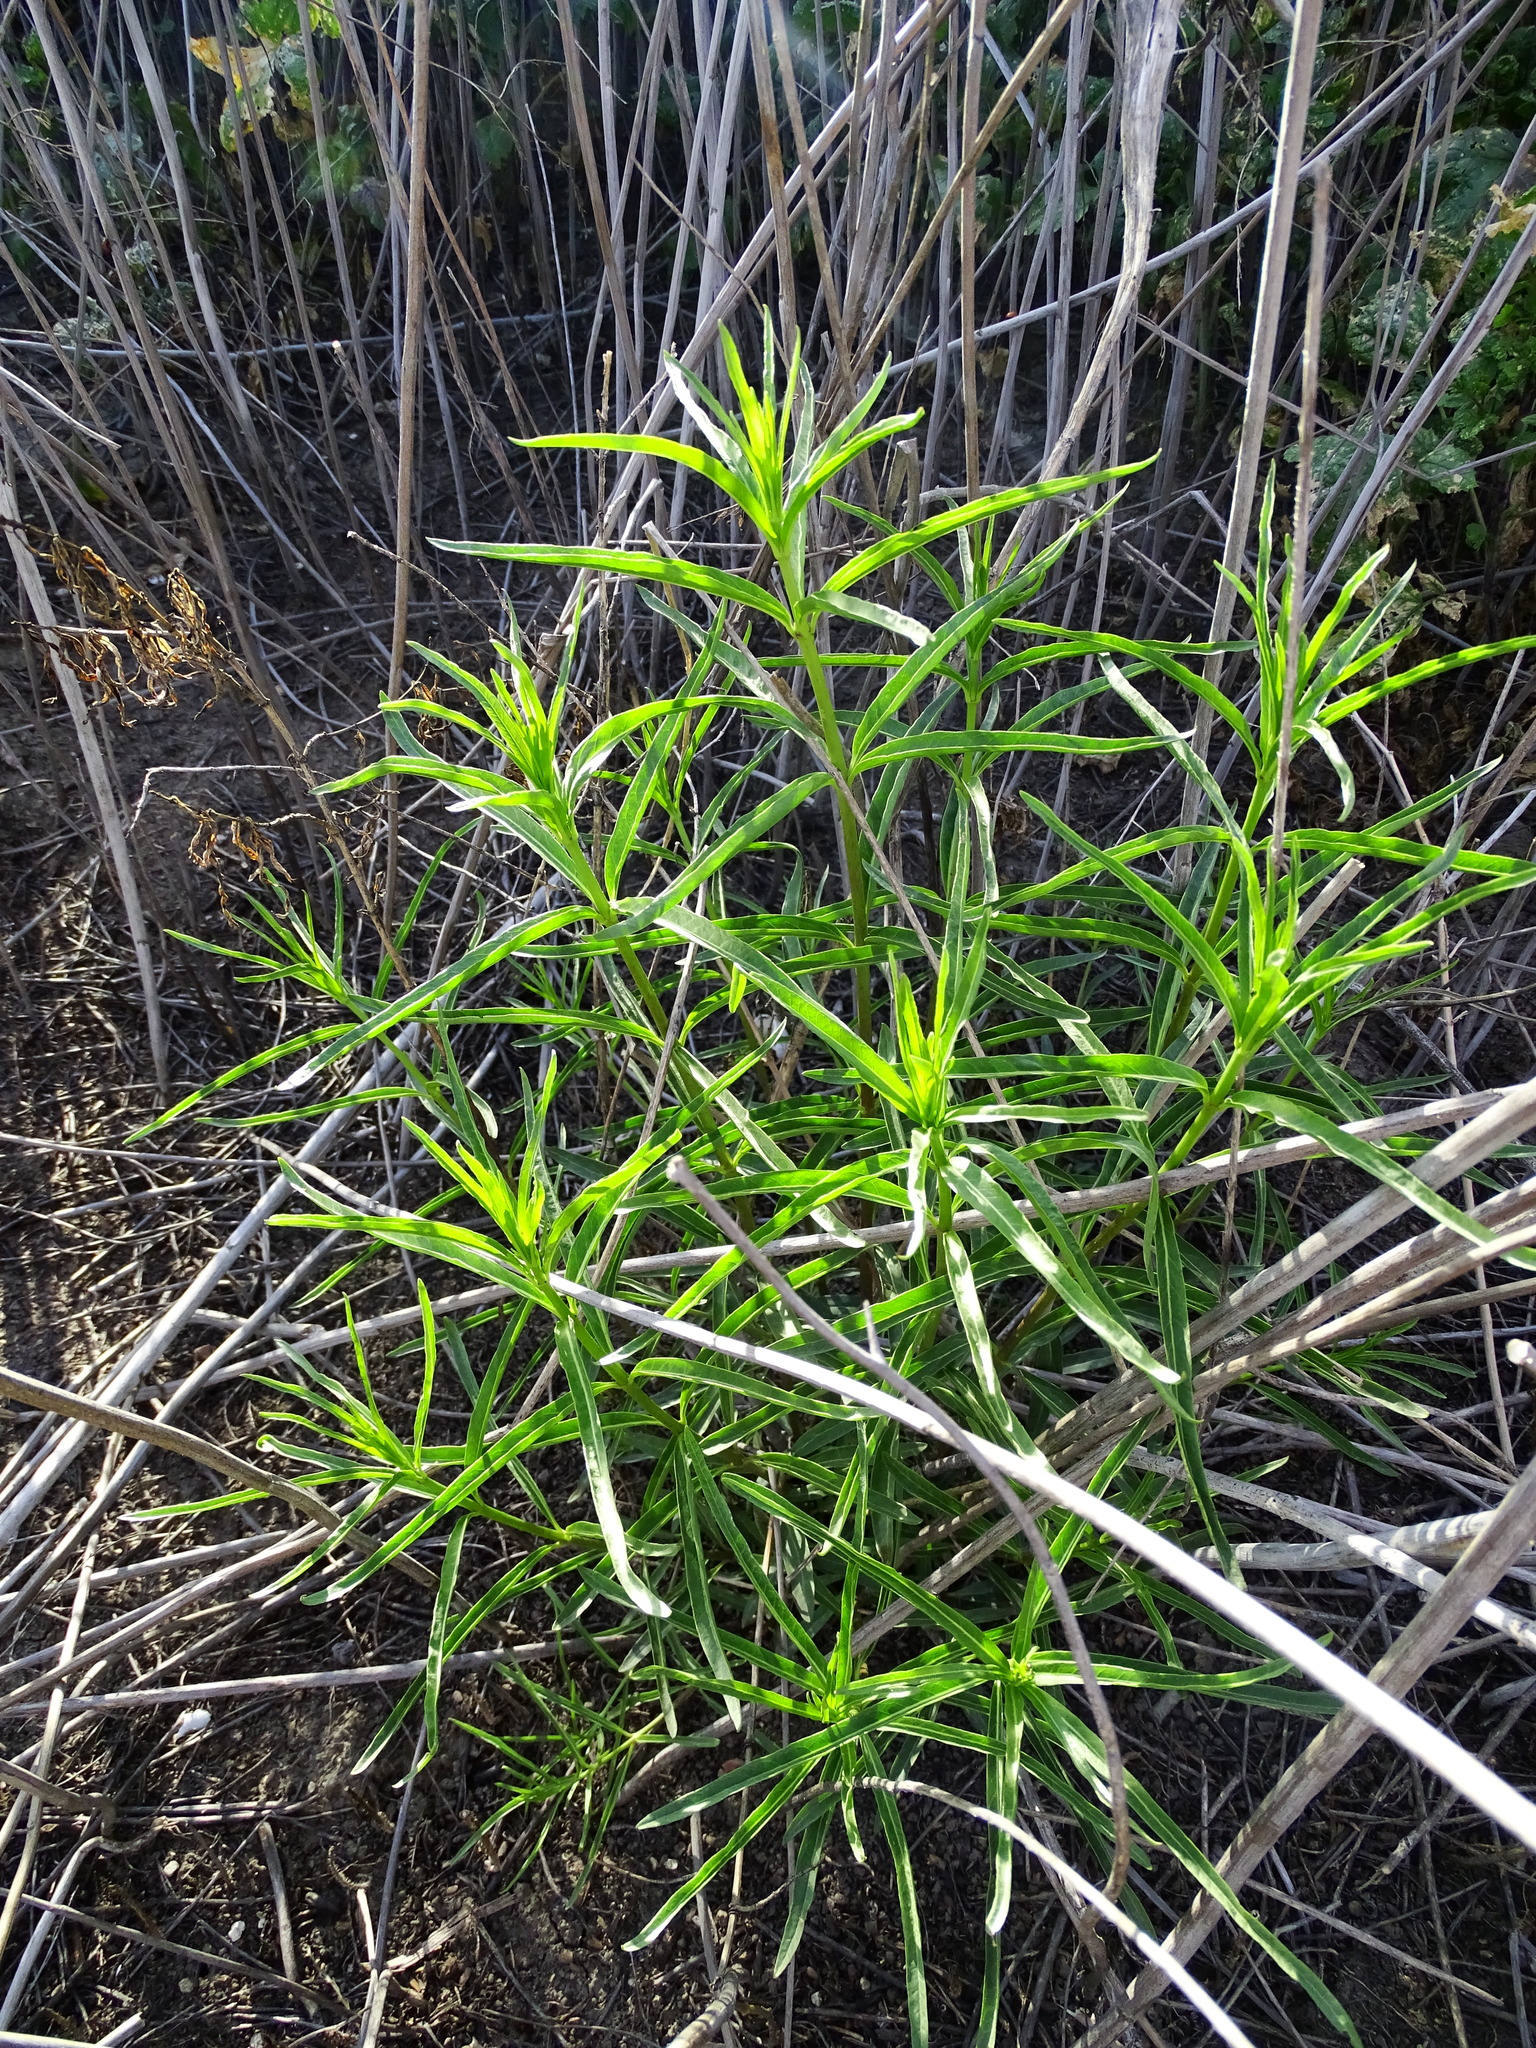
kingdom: Plantae
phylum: Tracheophyta
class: Magnoliopsida
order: Gentianales
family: Apocynaceae
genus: Asclepias
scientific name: Asclepias fascicularis
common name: Mexican milkweed
